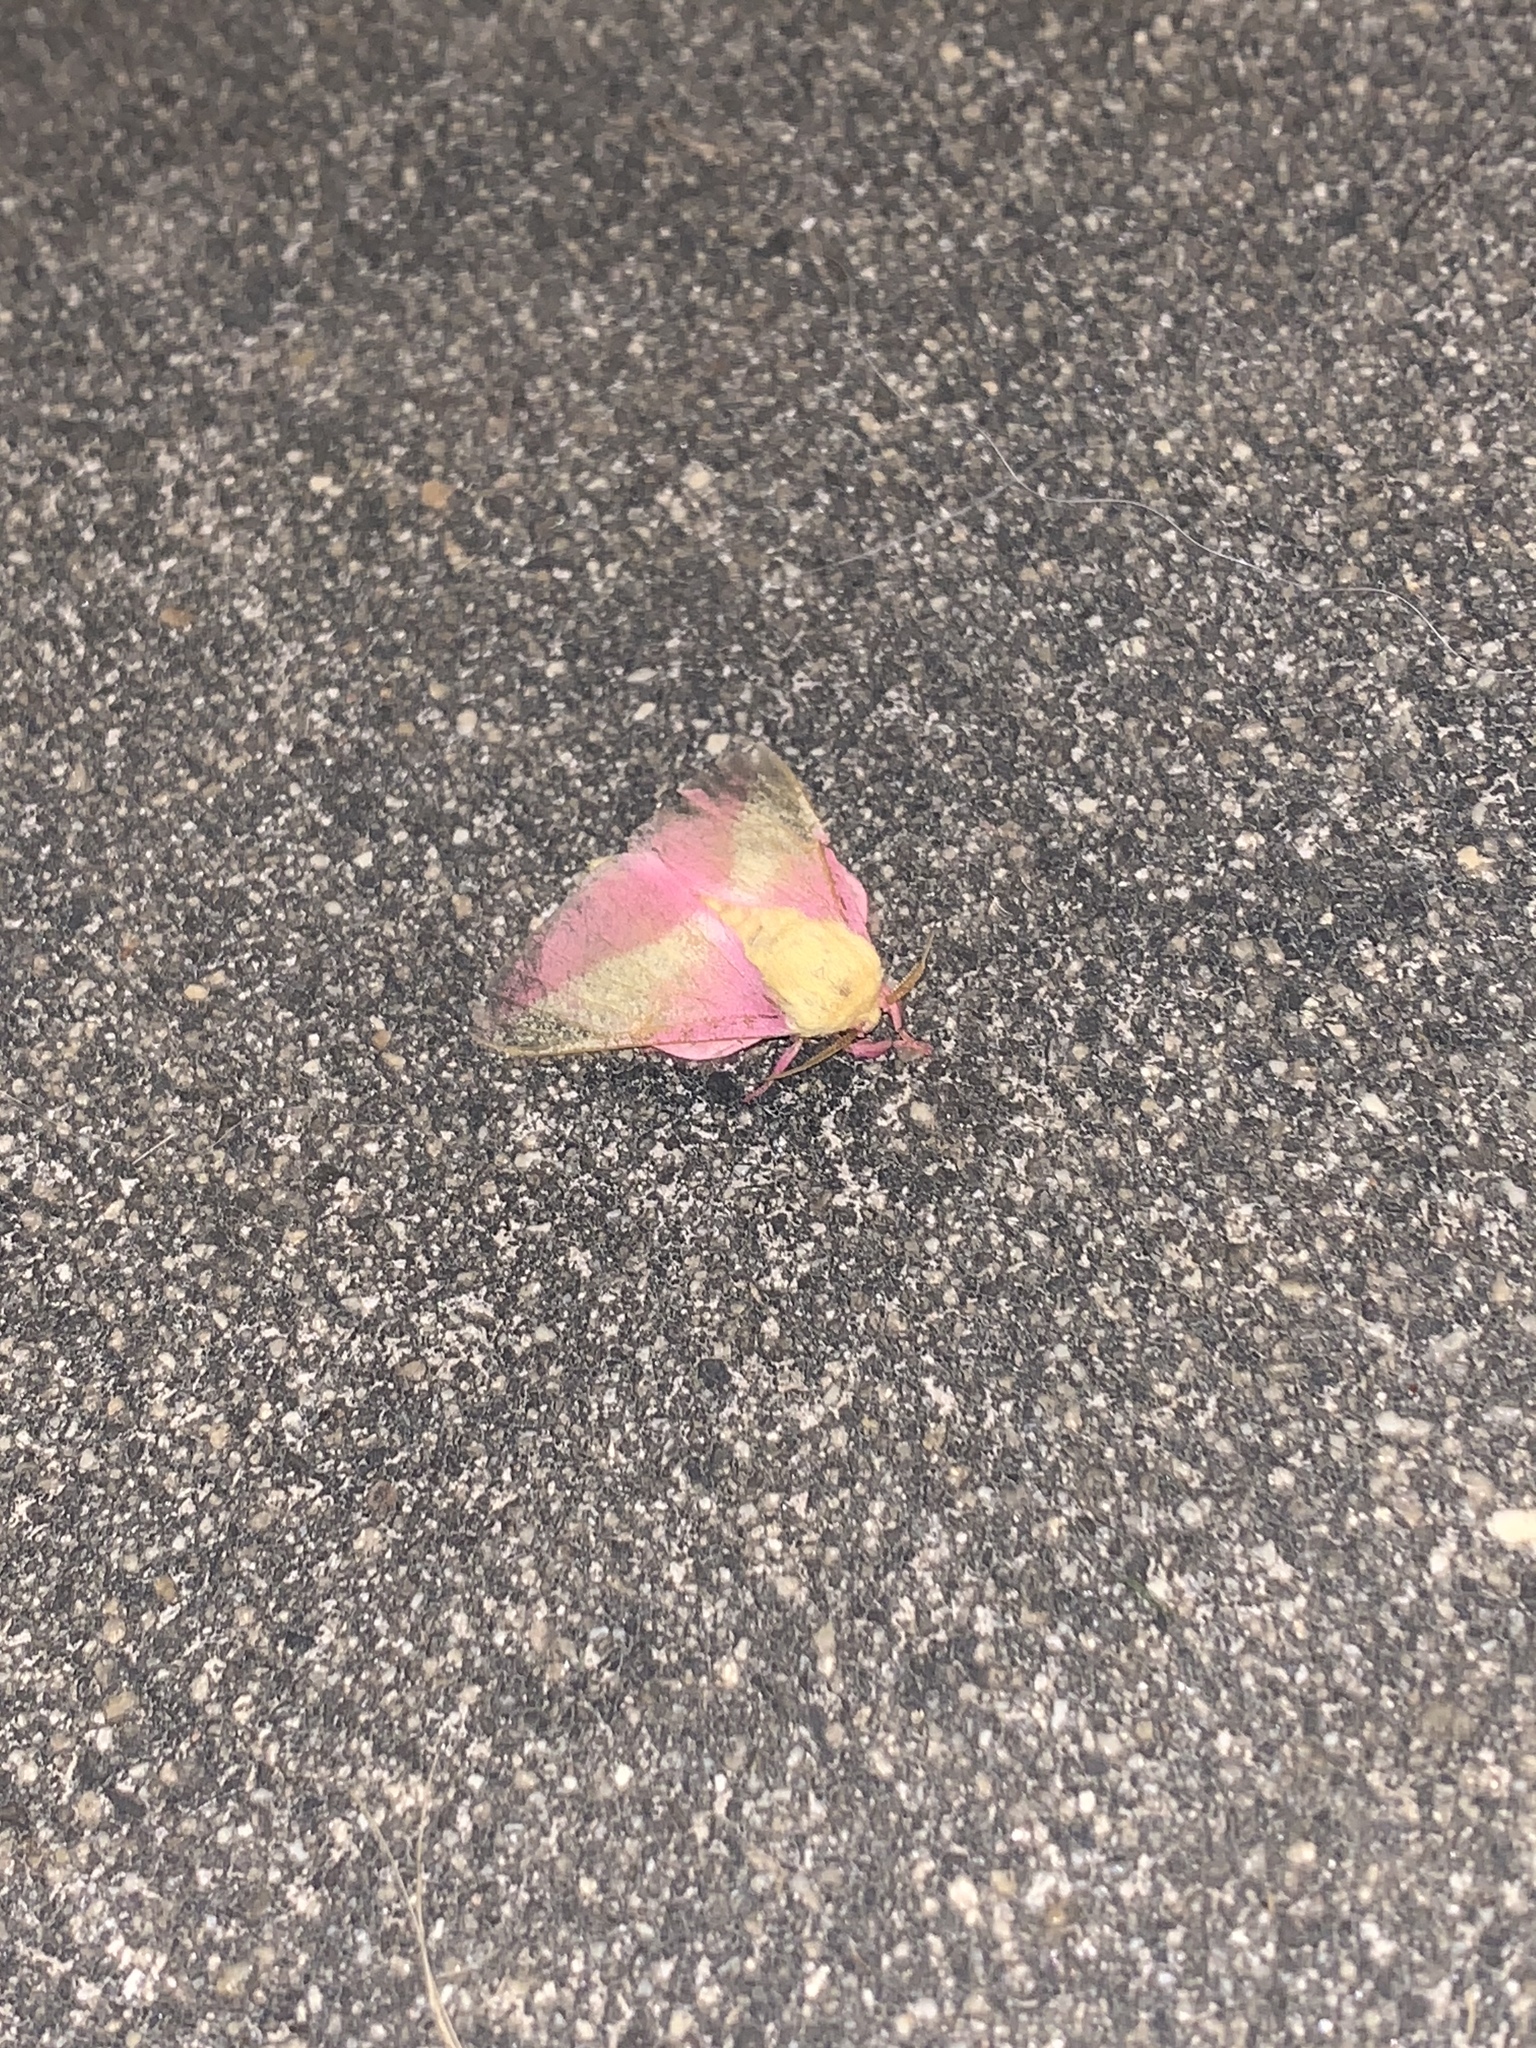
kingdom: Animalia
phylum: Arthropoda
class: Insecta
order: Lepidoptera
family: Saturniidae
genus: Dryocampa
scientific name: Dryocampa rubicunda
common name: Rosy maple moth
